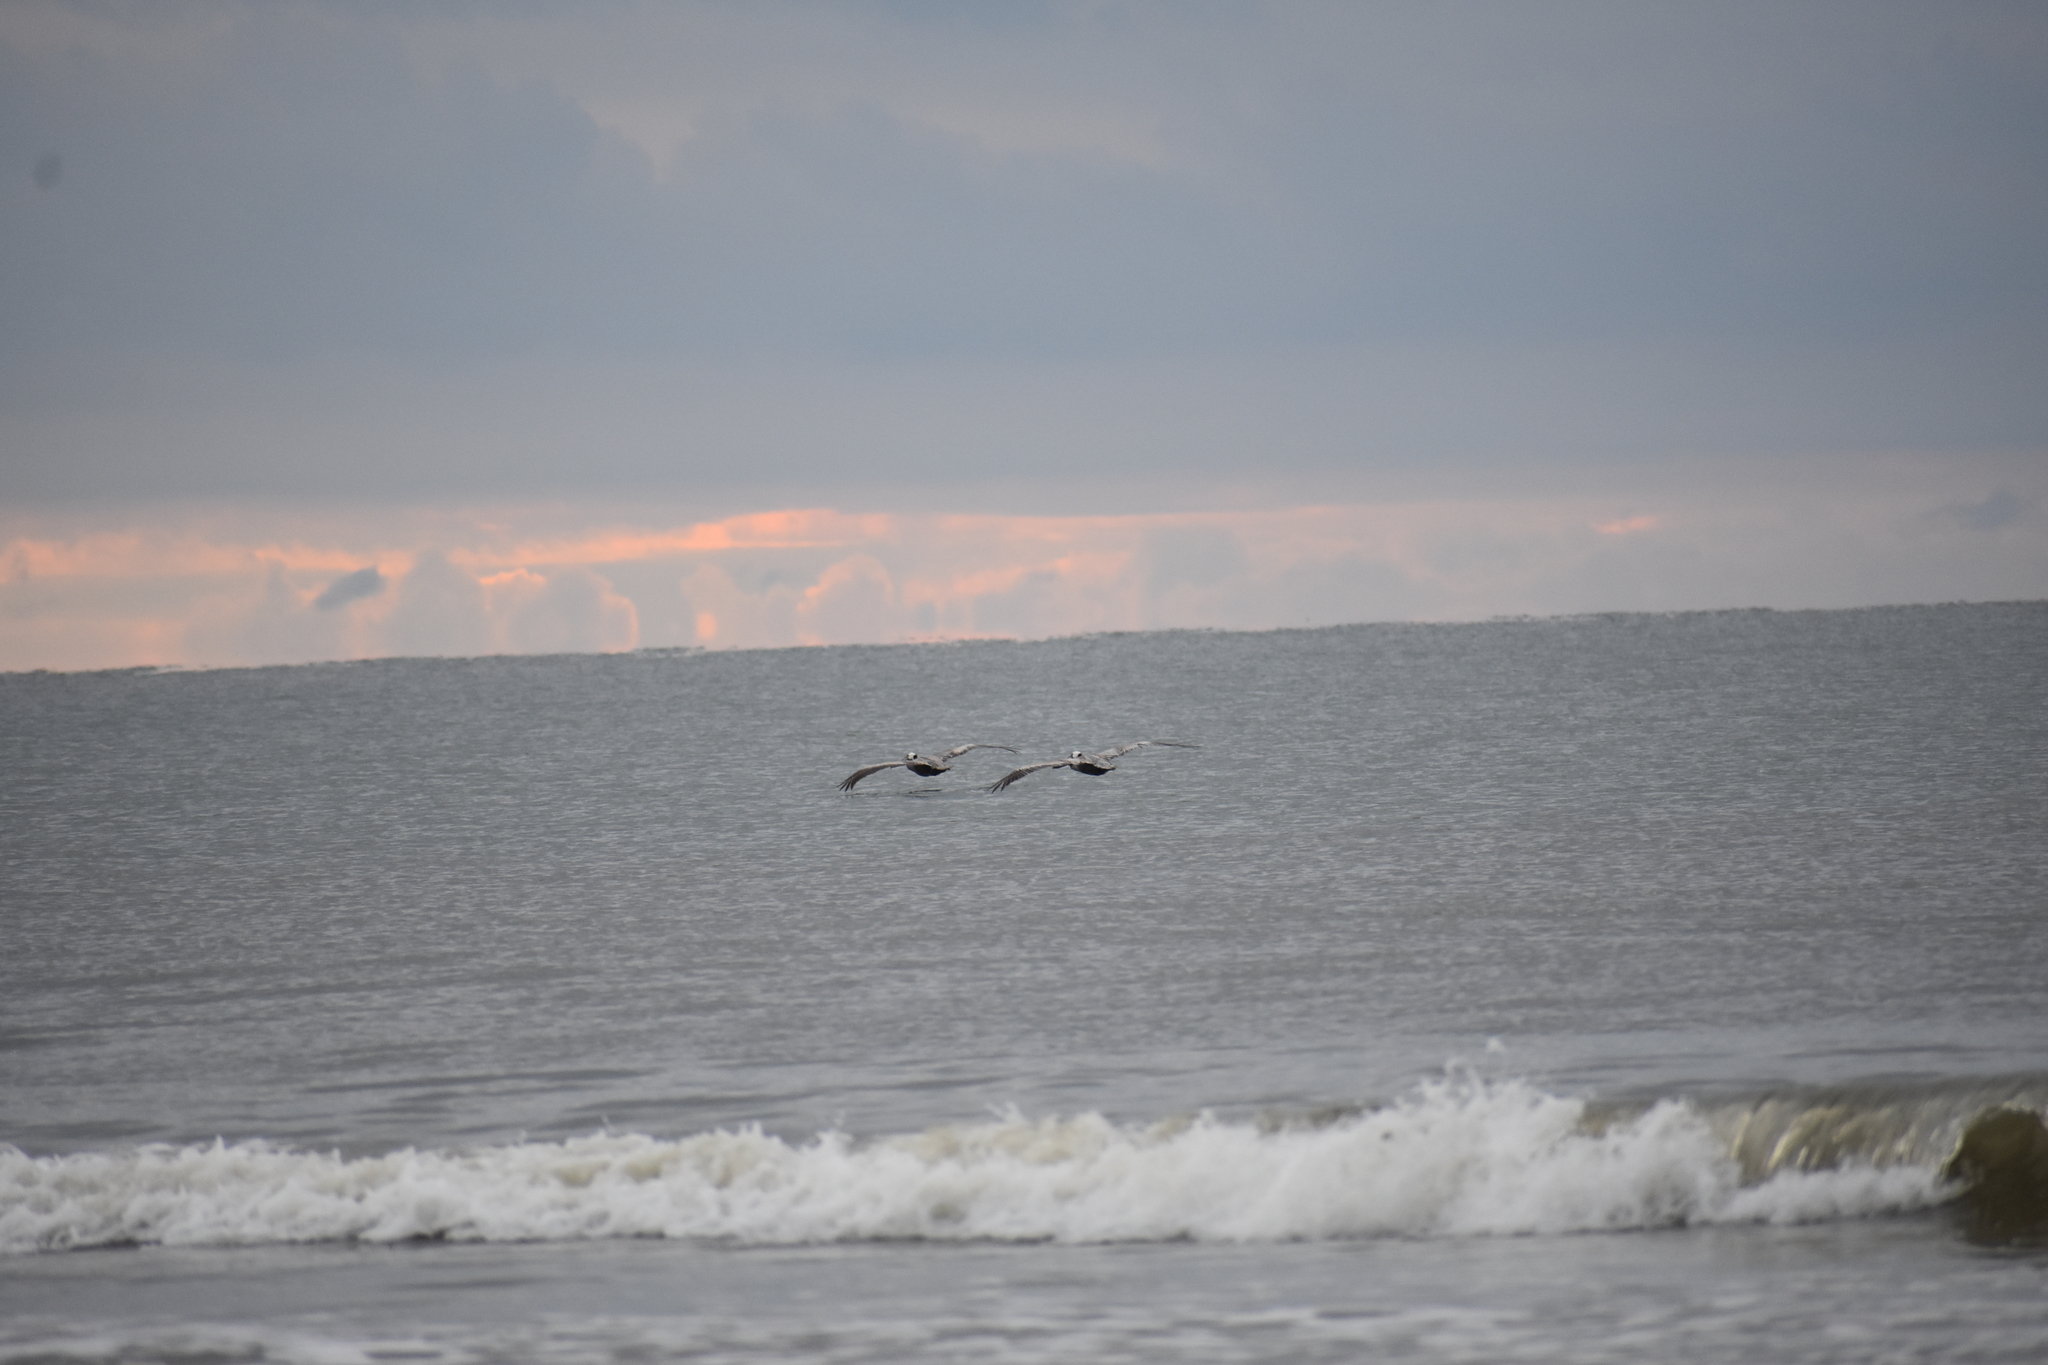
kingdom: Animalia
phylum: Chordata
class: Aves
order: Pelecaniformes
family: Pelecanidae
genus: Pelecanus
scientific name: Pelecanus occidentalis
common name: Brown pelican
